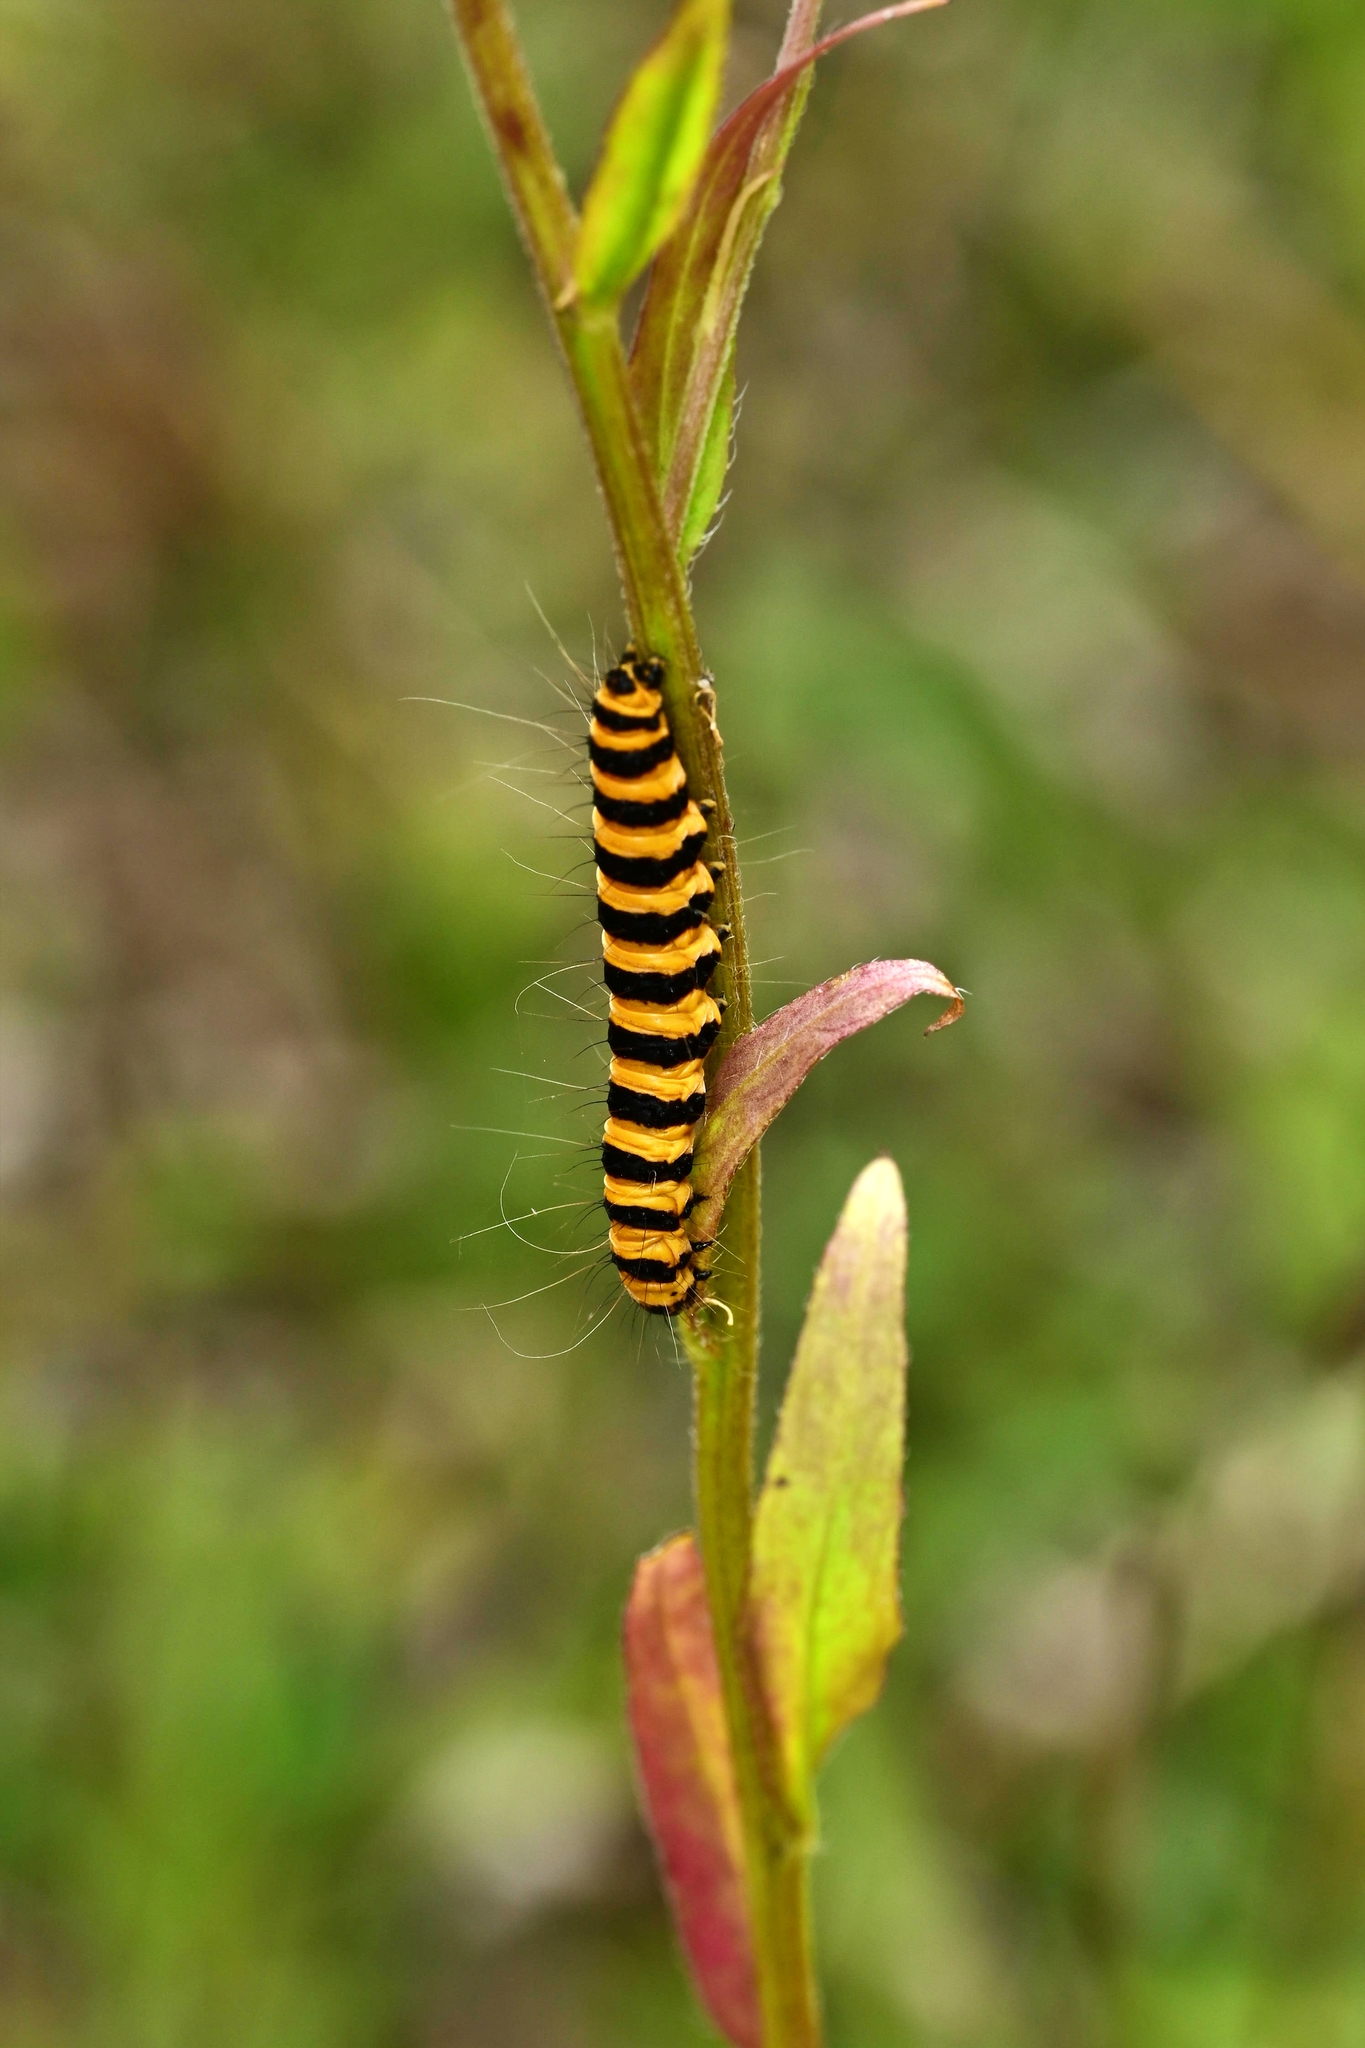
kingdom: Animalia
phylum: Arthropoda
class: Insecta
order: Lepidoptera
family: Erebidae
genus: Tyria
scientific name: Tyria jacobaeae
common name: Cinnabar
